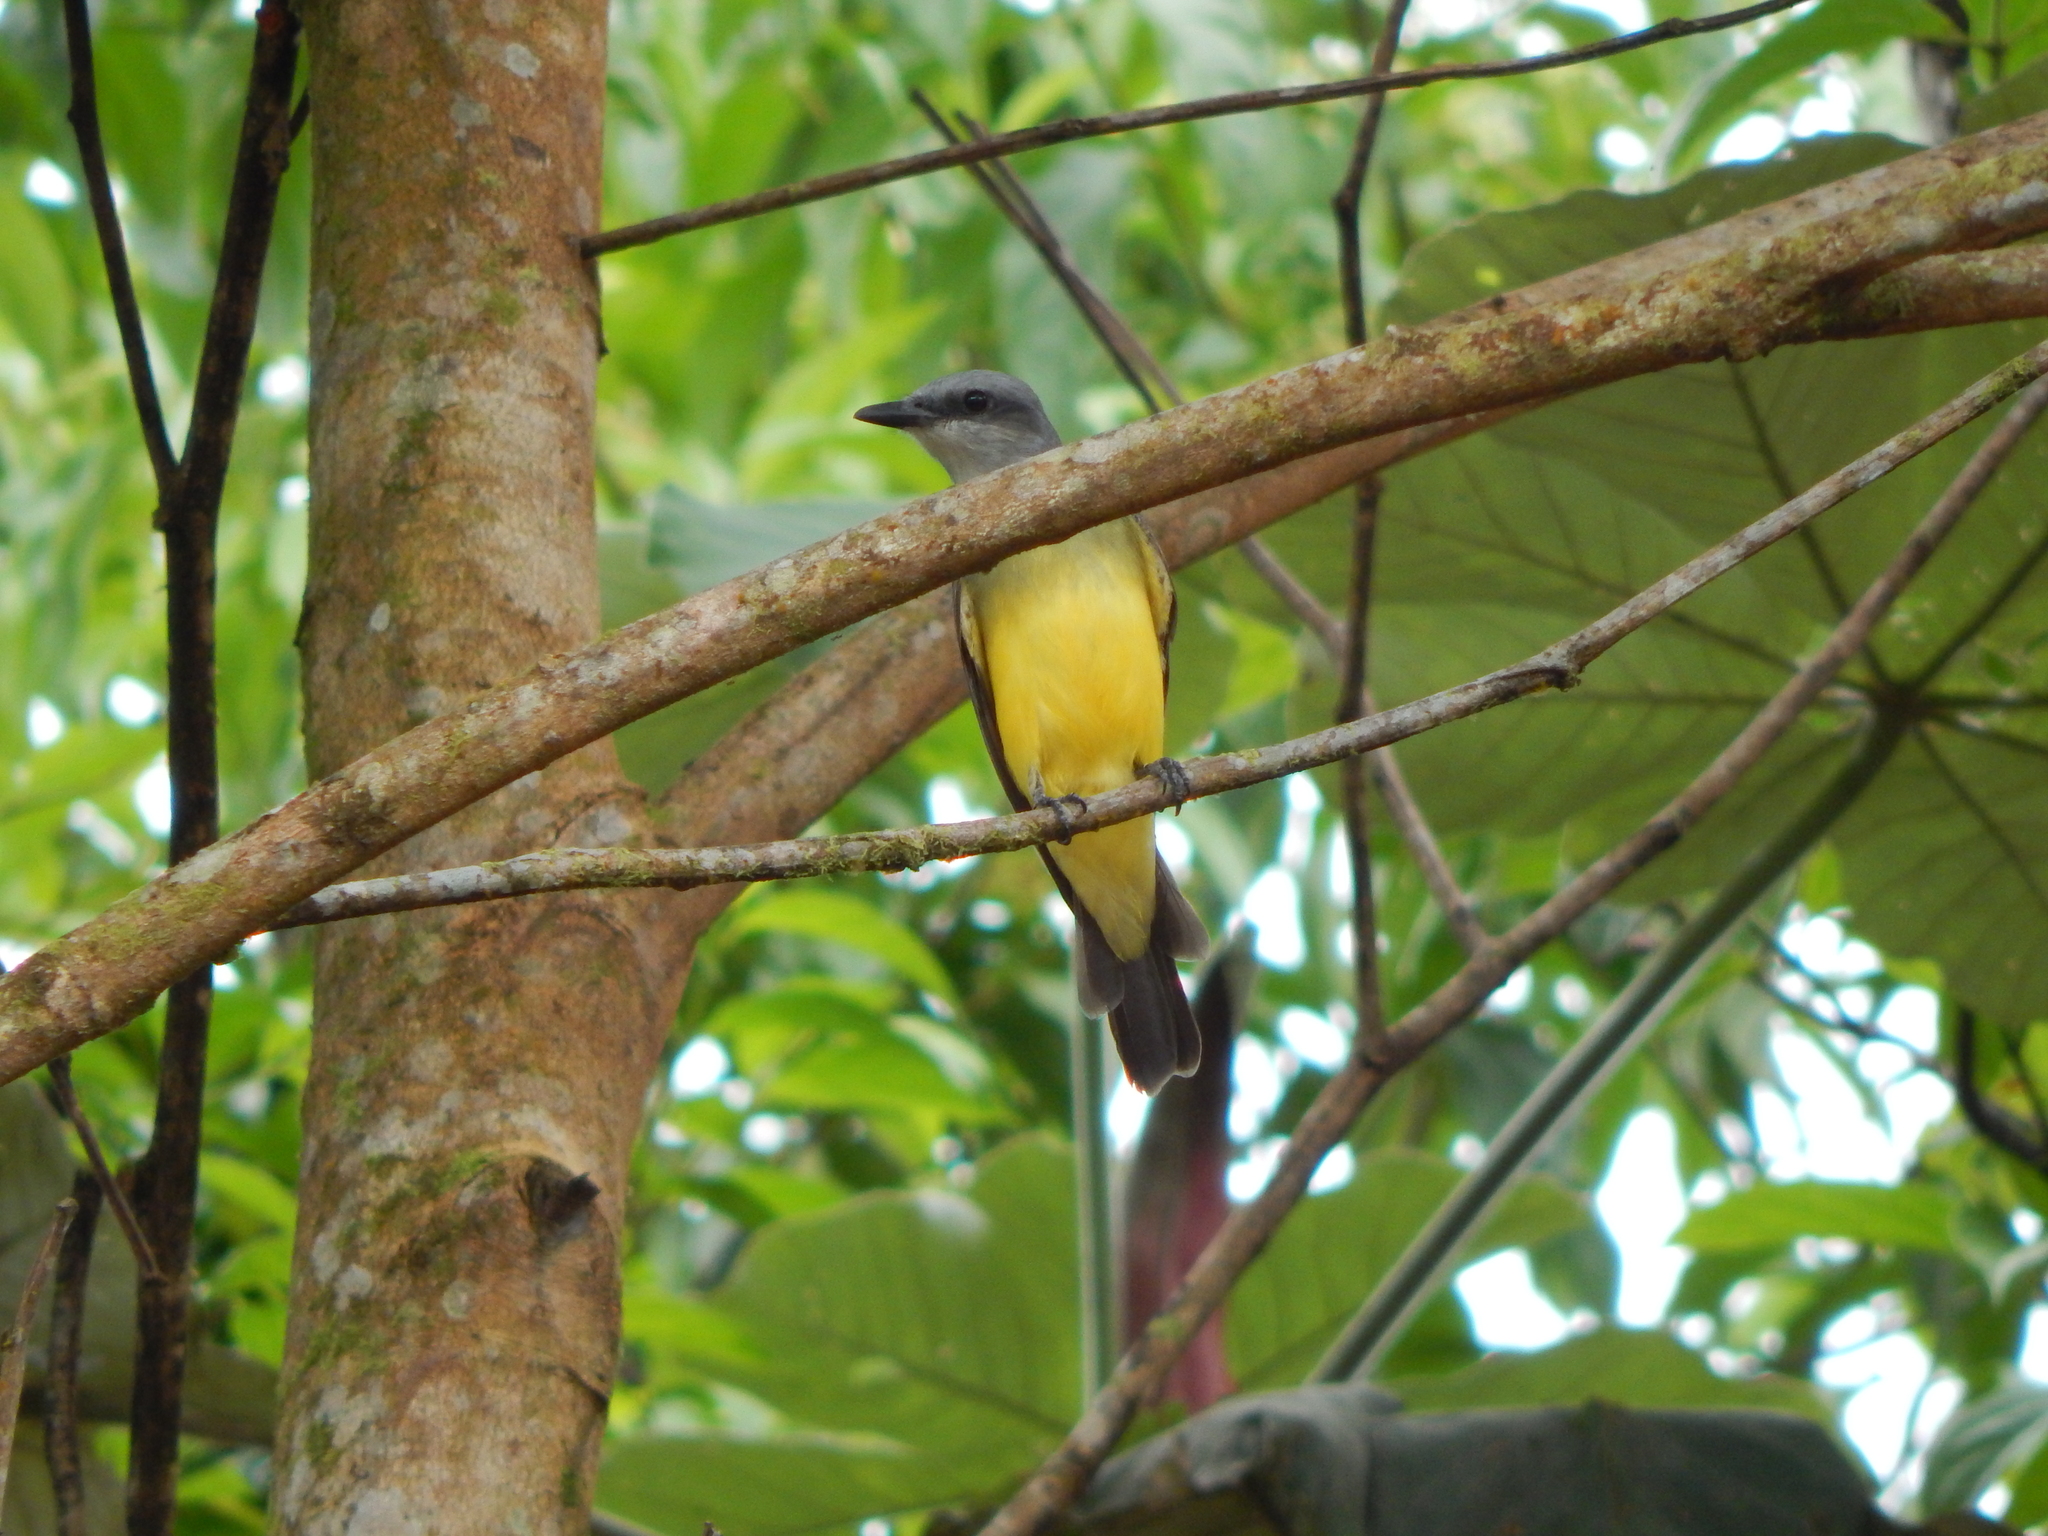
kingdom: Animalia
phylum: Chordata
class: Aves
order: Passeriformes
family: Tyrannidae
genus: Tyrannus
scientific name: Tyrannus melancholicus
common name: Tropical kingbird
